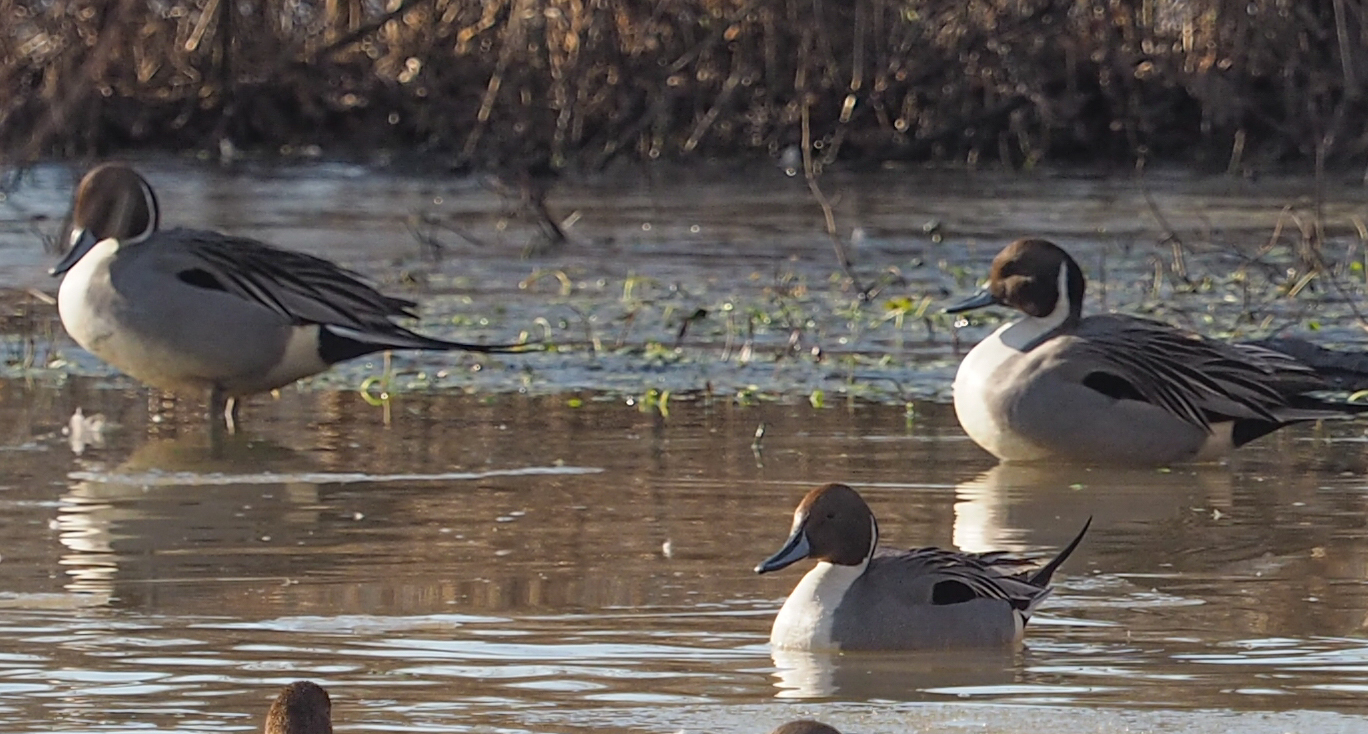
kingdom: Animalia
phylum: Chordata
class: Aves
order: Anseriformes
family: Anatidae
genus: Anas
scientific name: Anas acuta
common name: Northern pintail
